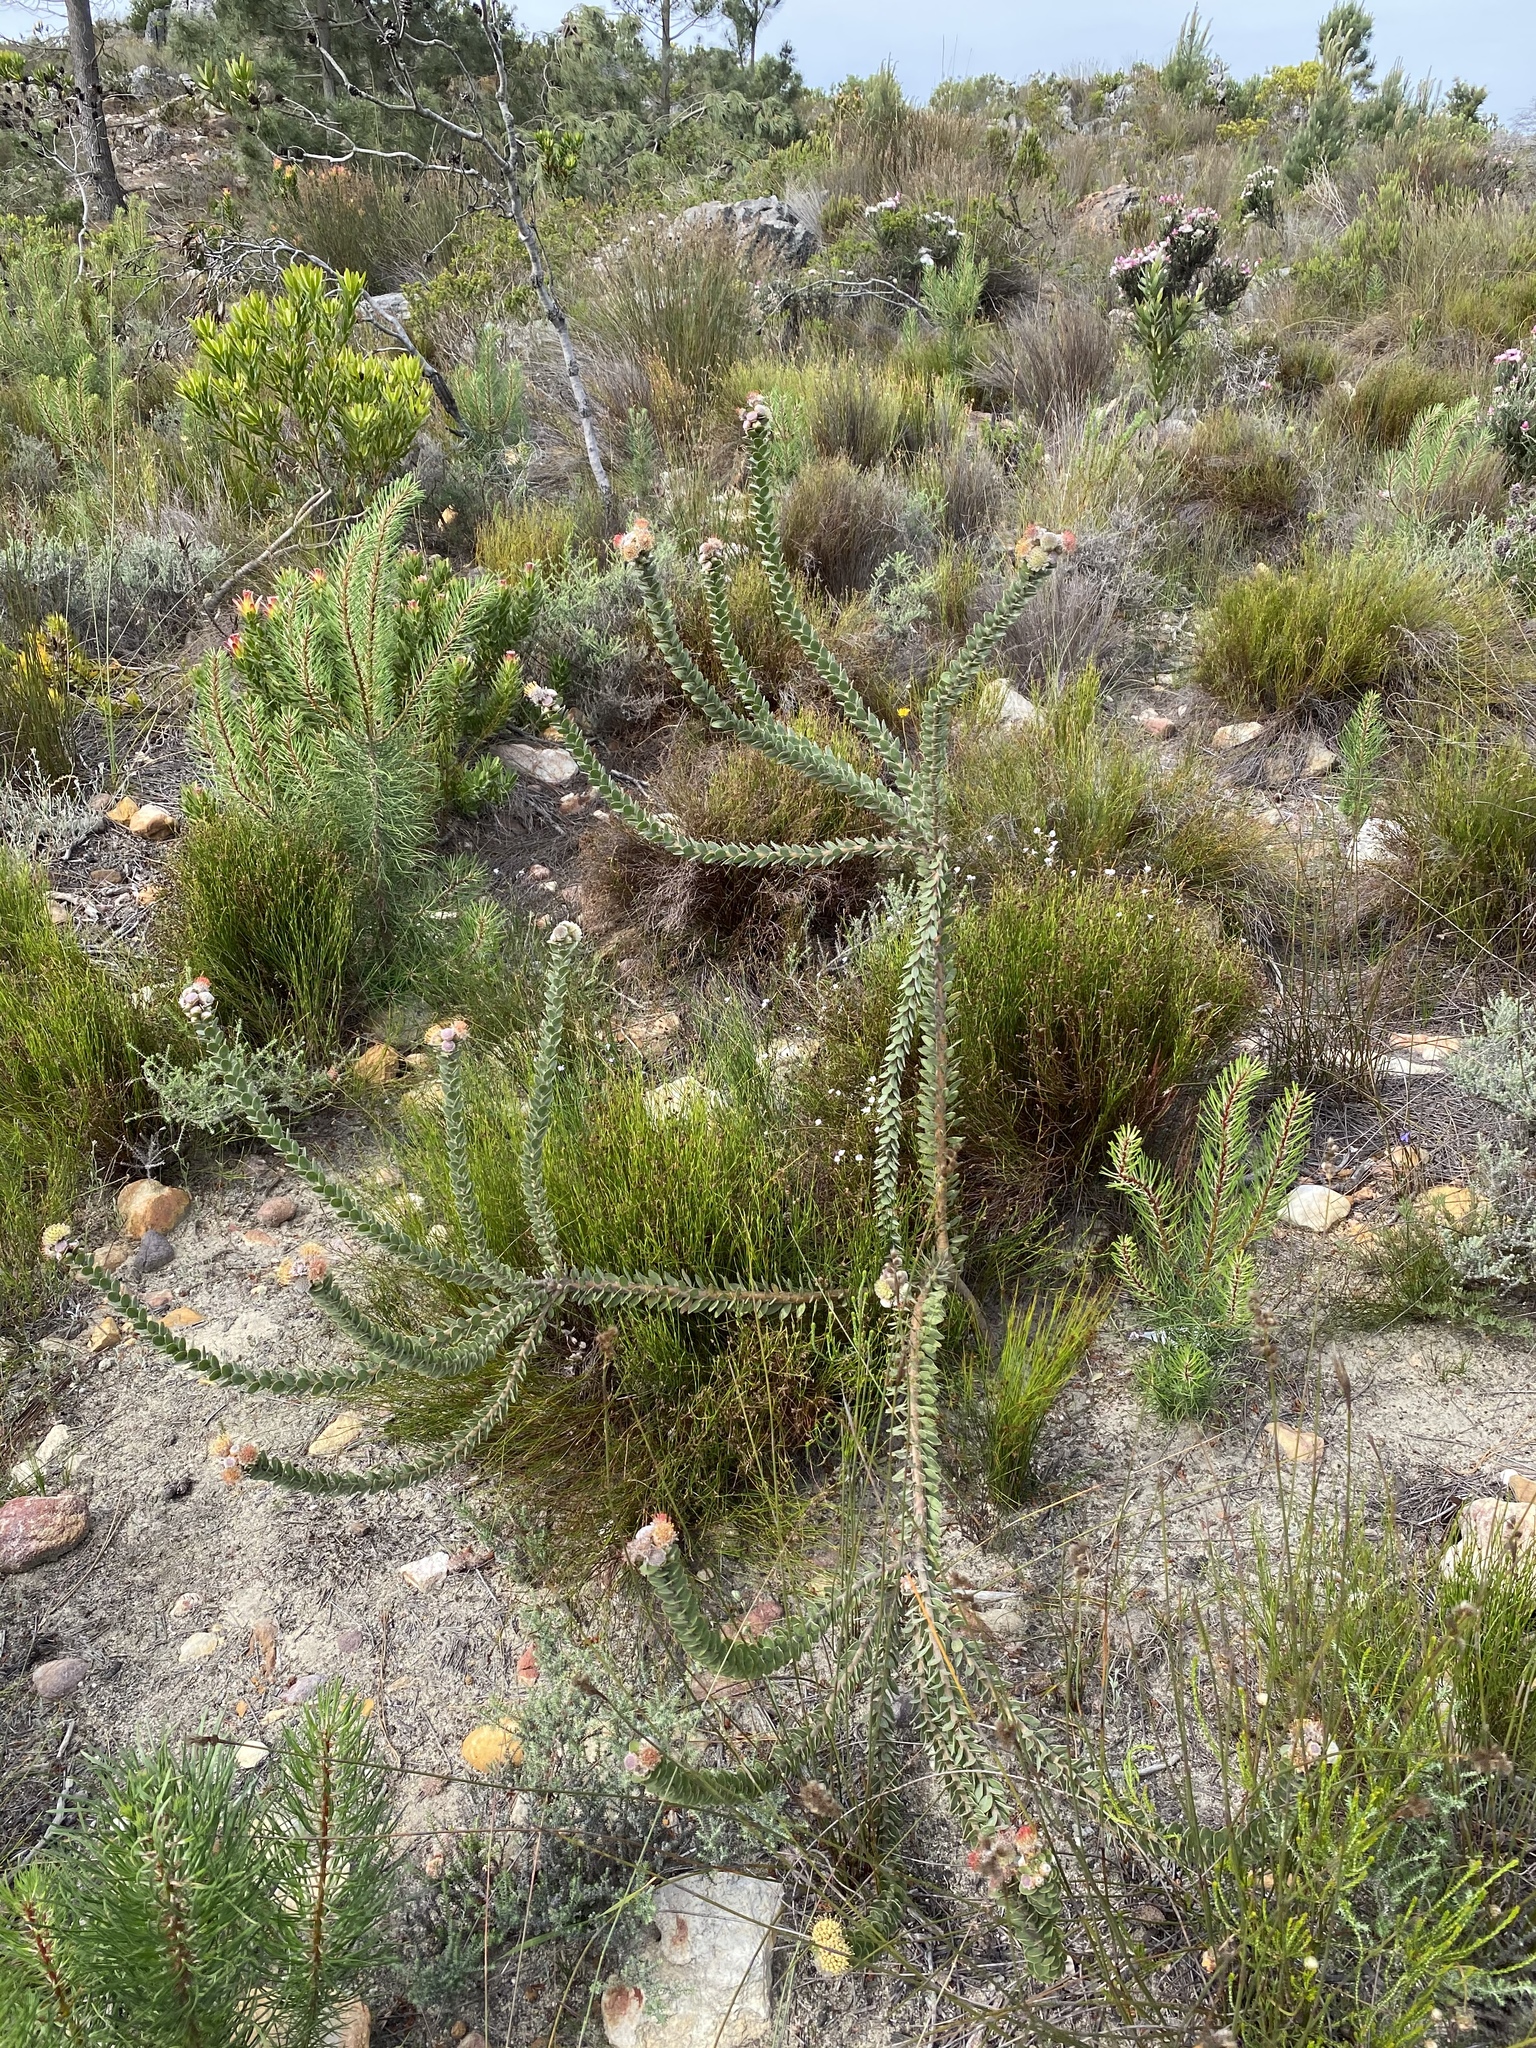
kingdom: Plantae
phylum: Tracheophyta
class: Magnoliopsida
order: Proteales
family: Proteaceae
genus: Leucospermum
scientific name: Leucospermum truncatulum
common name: Oval-leaf pincushion
